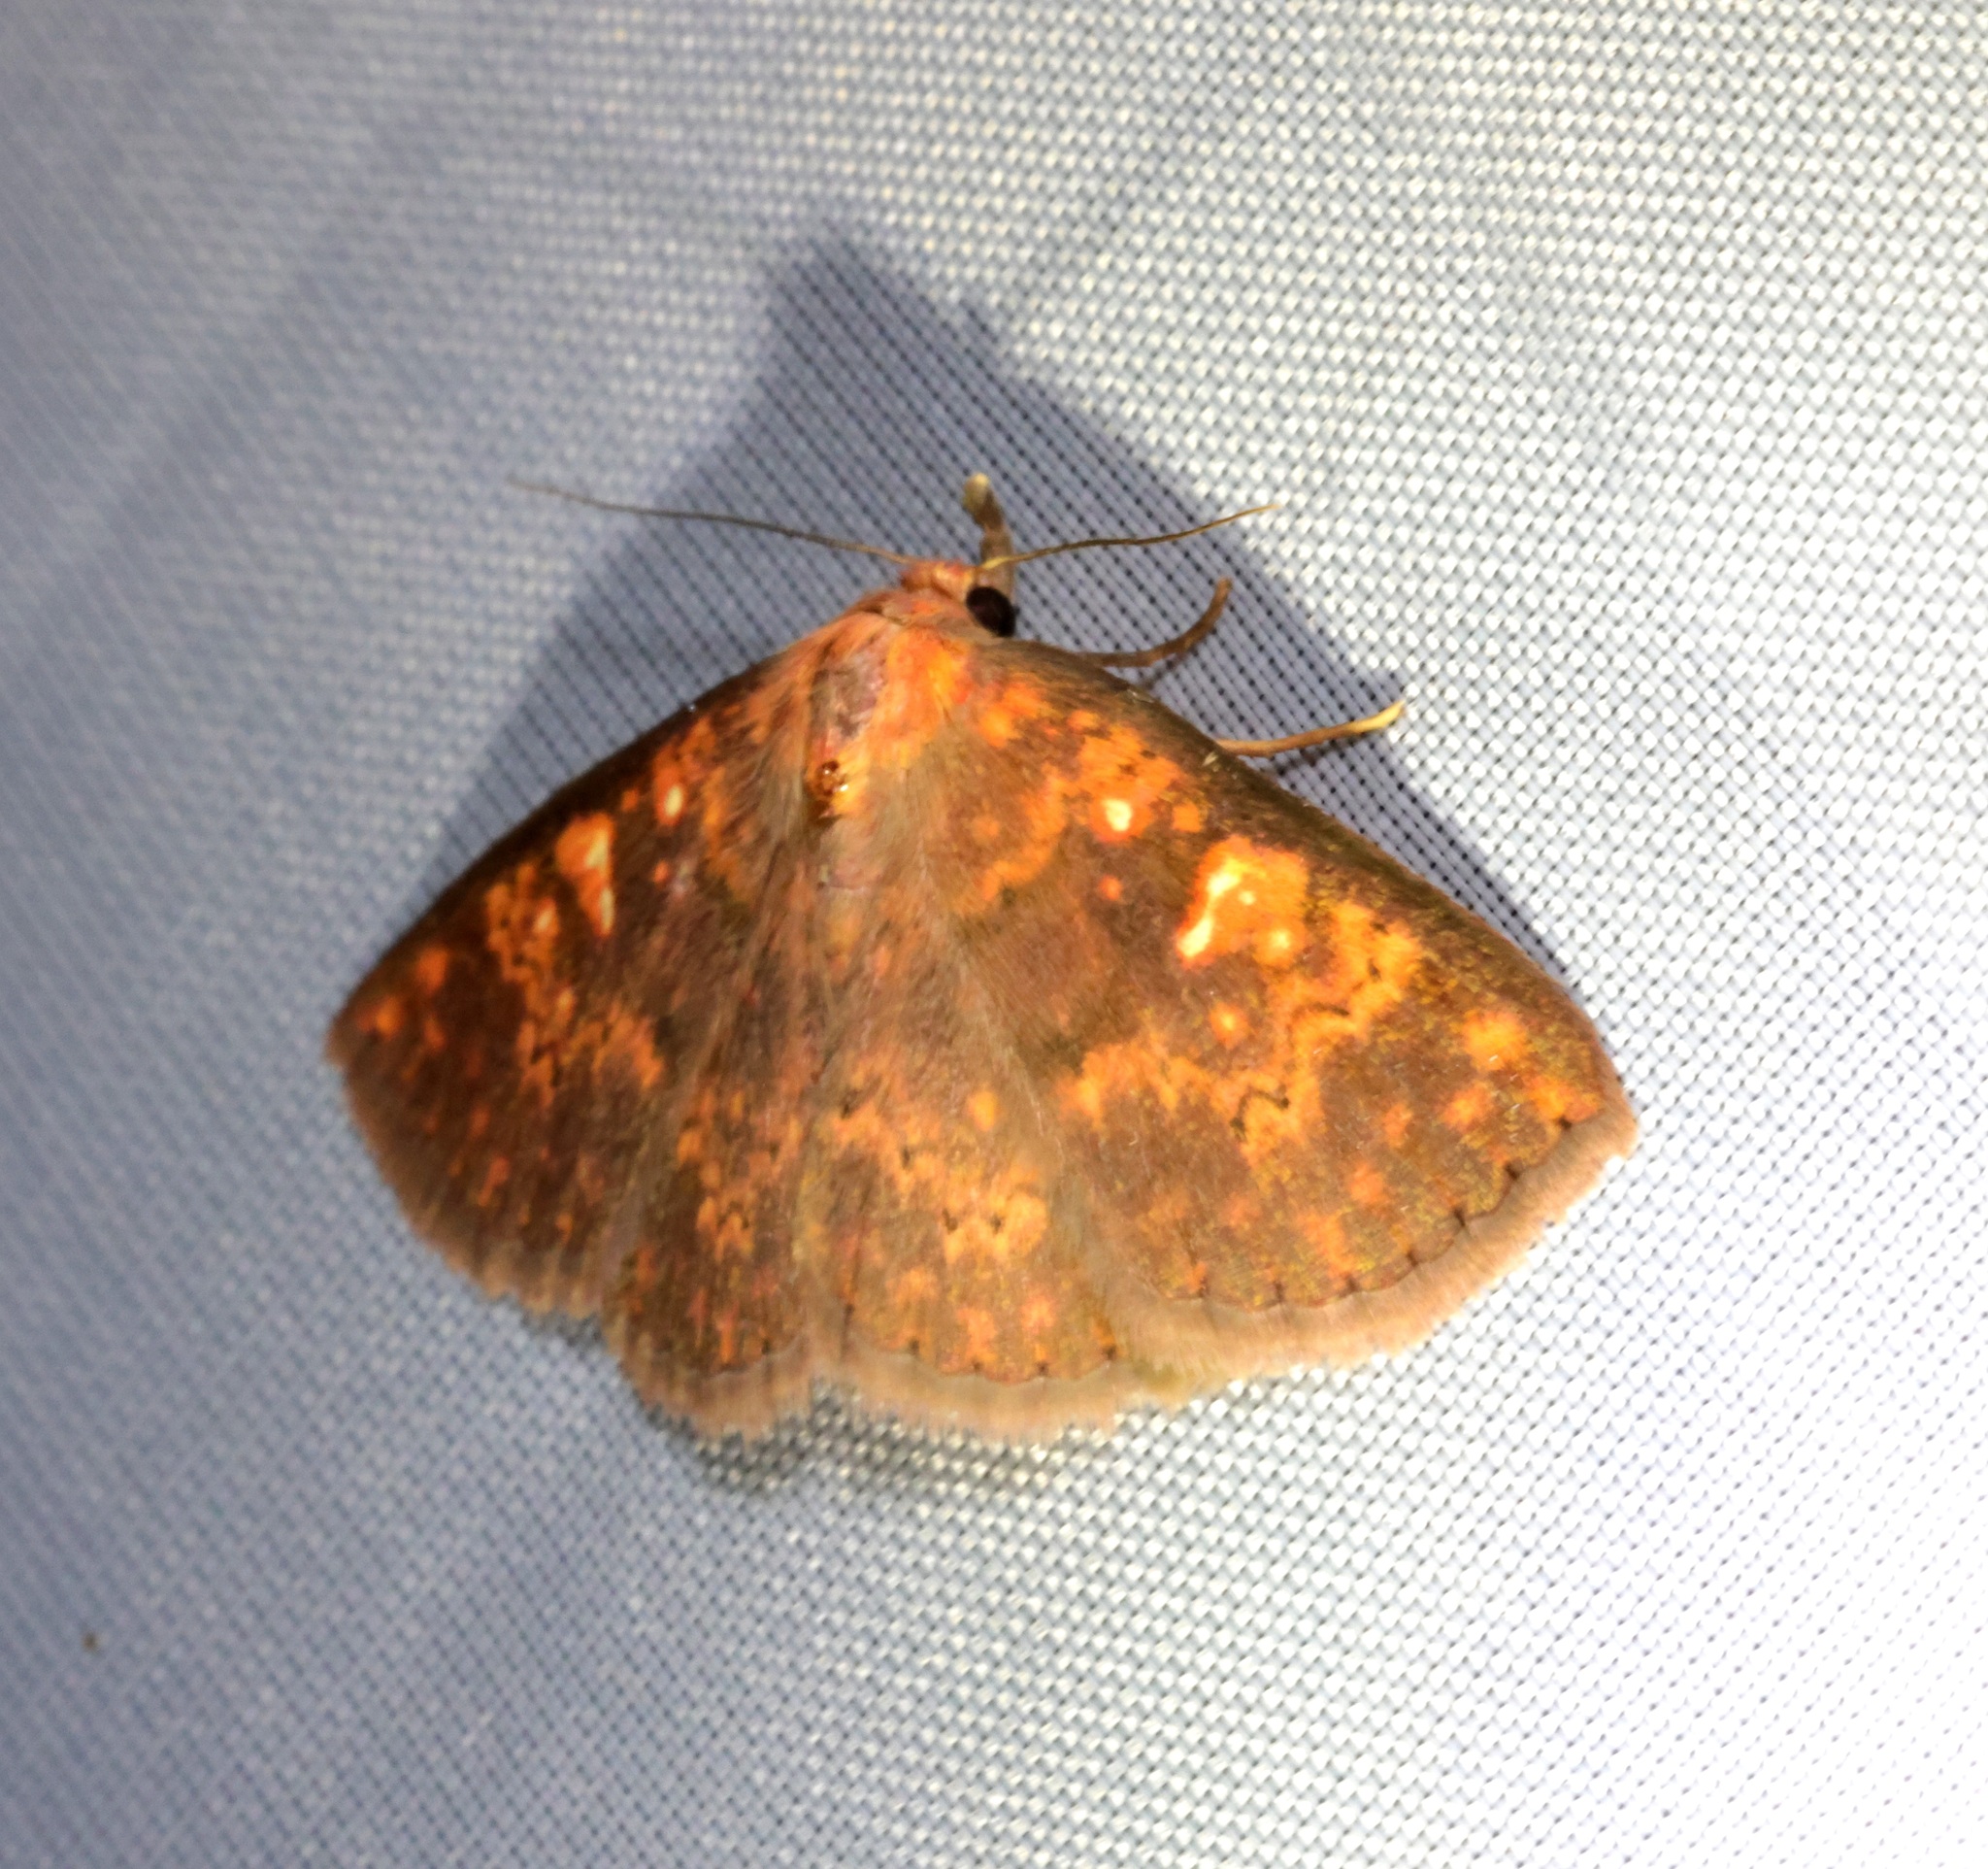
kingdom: Animalia
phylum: Arthropoda
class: Insecta
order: Lepidoptera
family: Erebidae
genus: Sarobides
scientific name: Sarobides inconclusa
